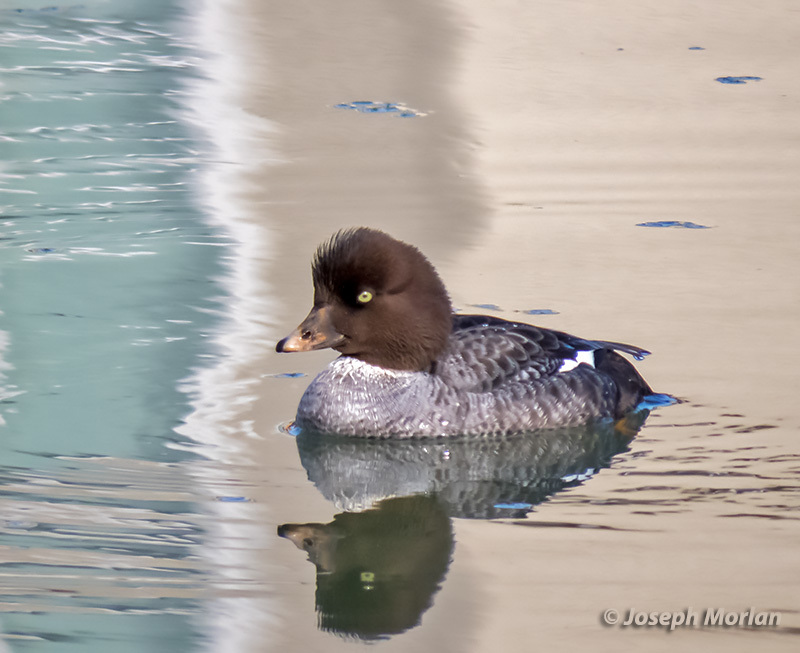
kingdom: Animalia
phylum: Chordata
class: Aves
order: Anseriformes
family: Anatidae
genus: Bucephala
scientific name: Bucephala islandica
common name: Barrow's goldeneye
